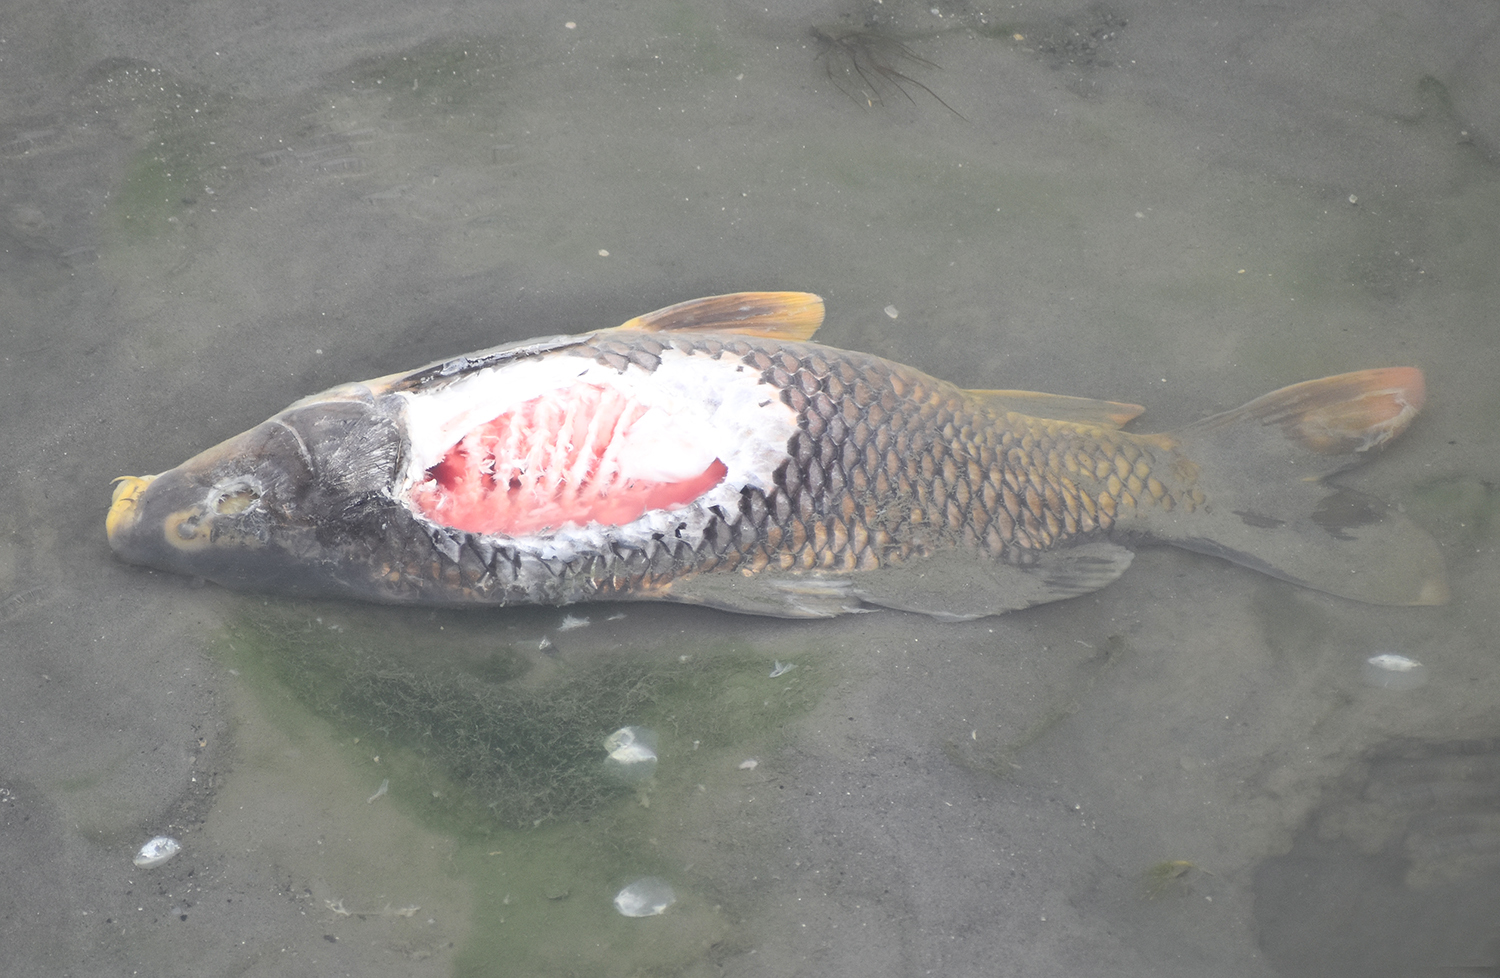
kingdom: Animalia
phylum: Chordata
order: Cypriniformes
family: Cyprinidae
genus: Cyprinus
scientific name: Cyprinus carpio
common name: Common carp
